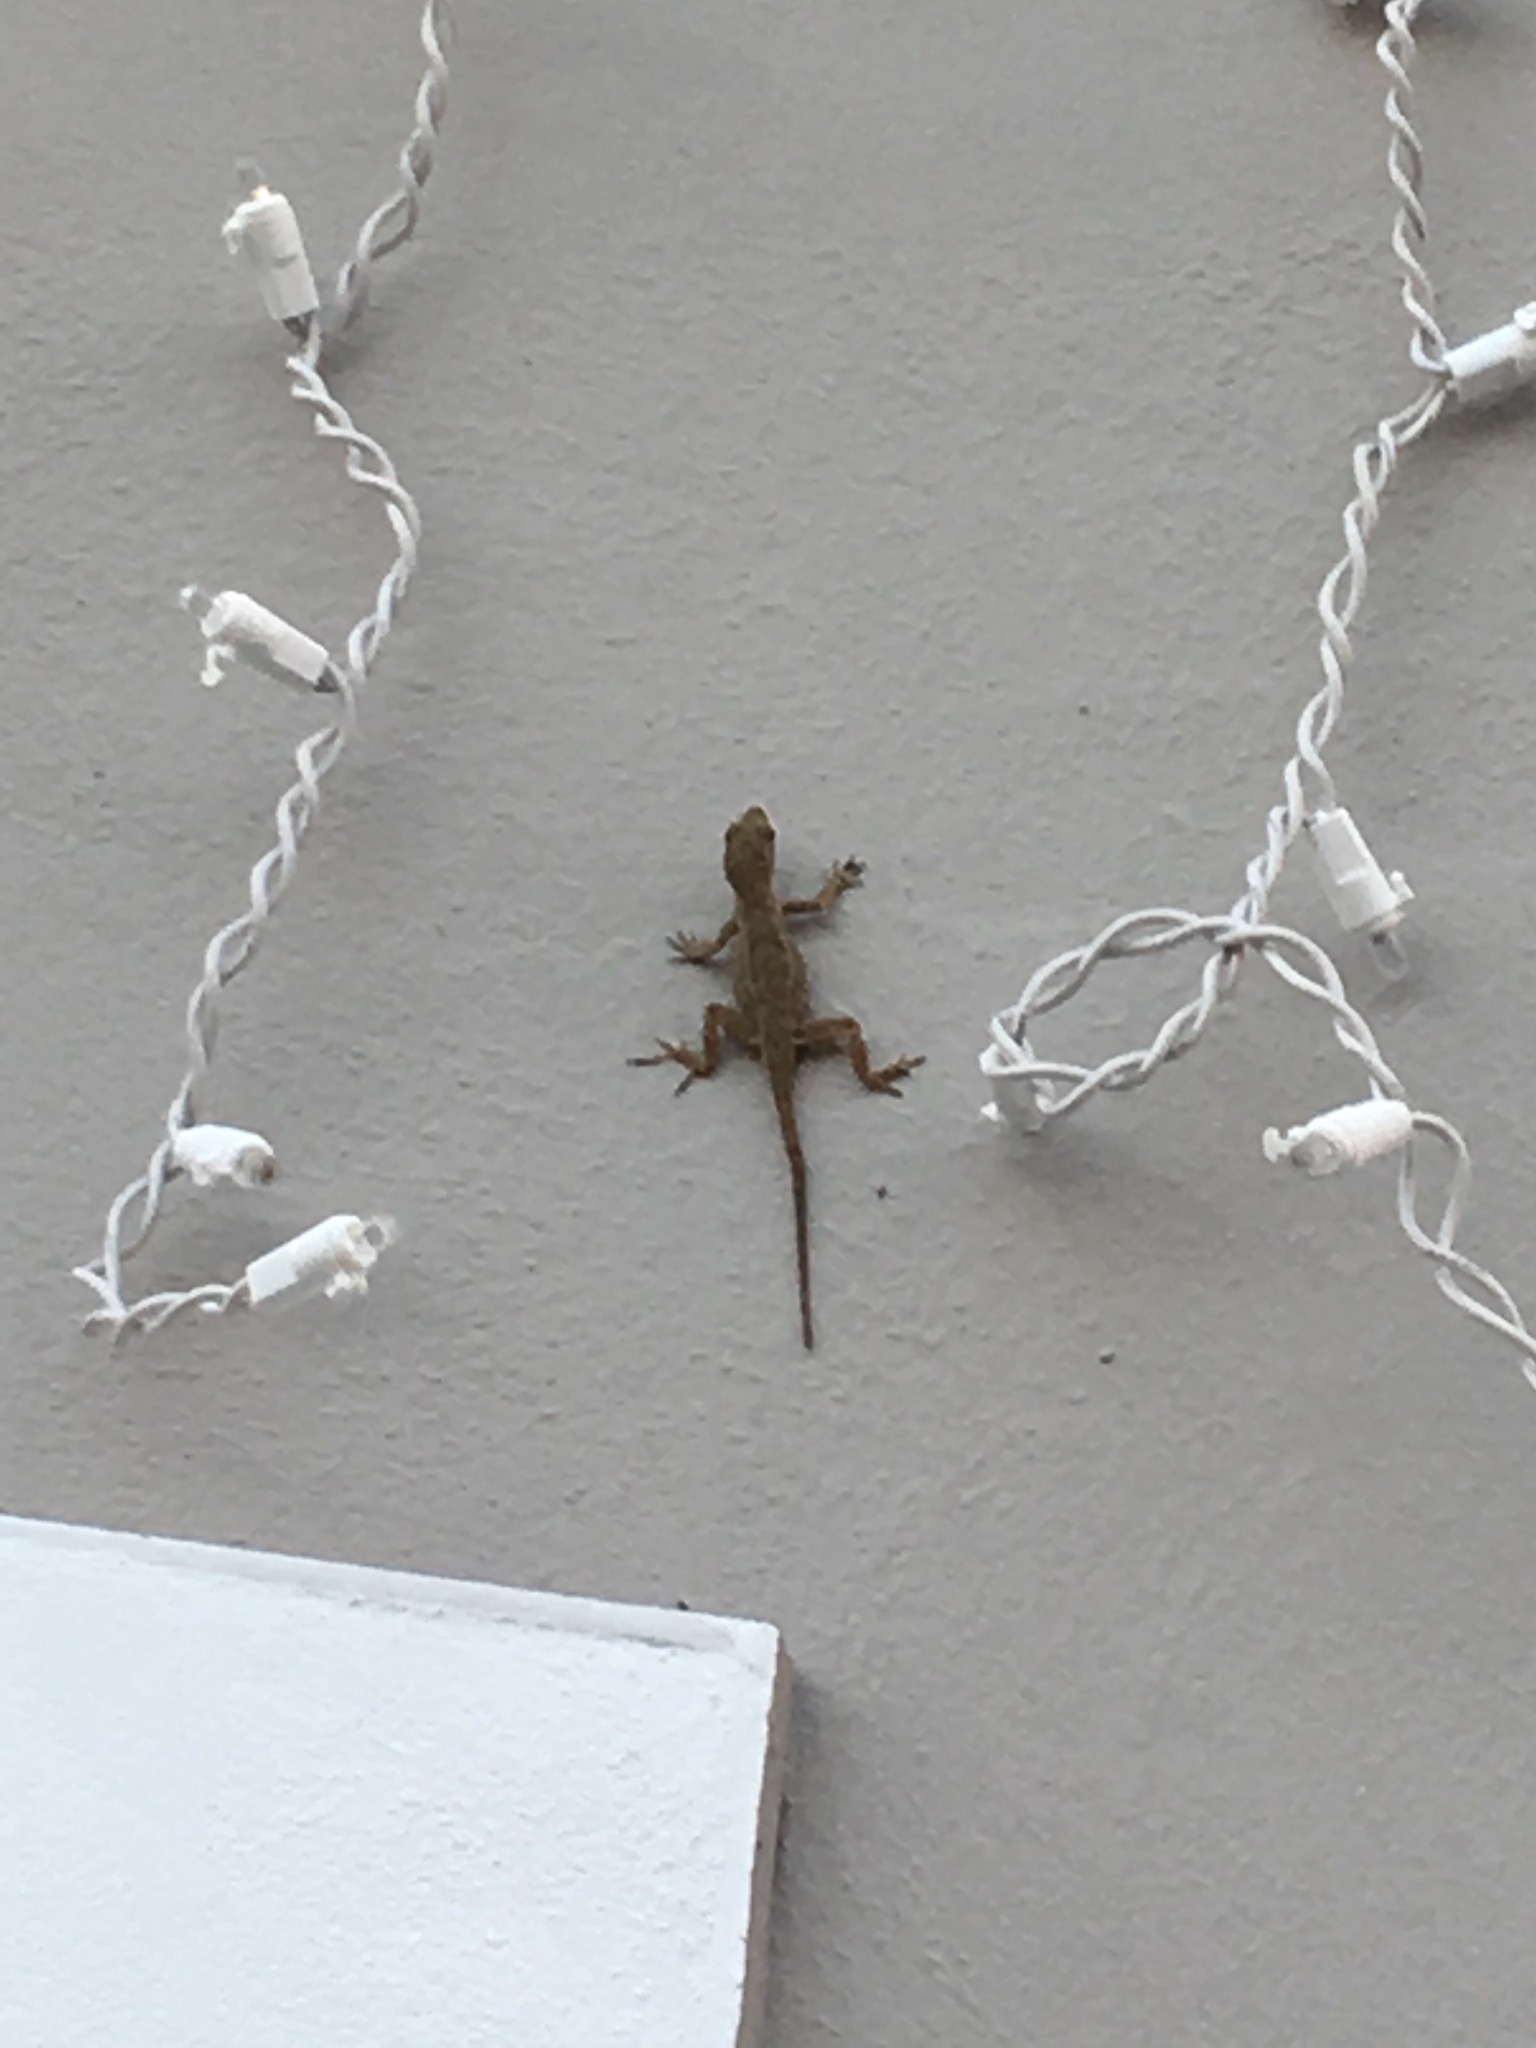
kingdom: Animalia
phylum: Chordata
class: Squamata
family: Dactyloidae
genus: Anolis
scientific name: Anolis cristatellus
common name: Crested anole
